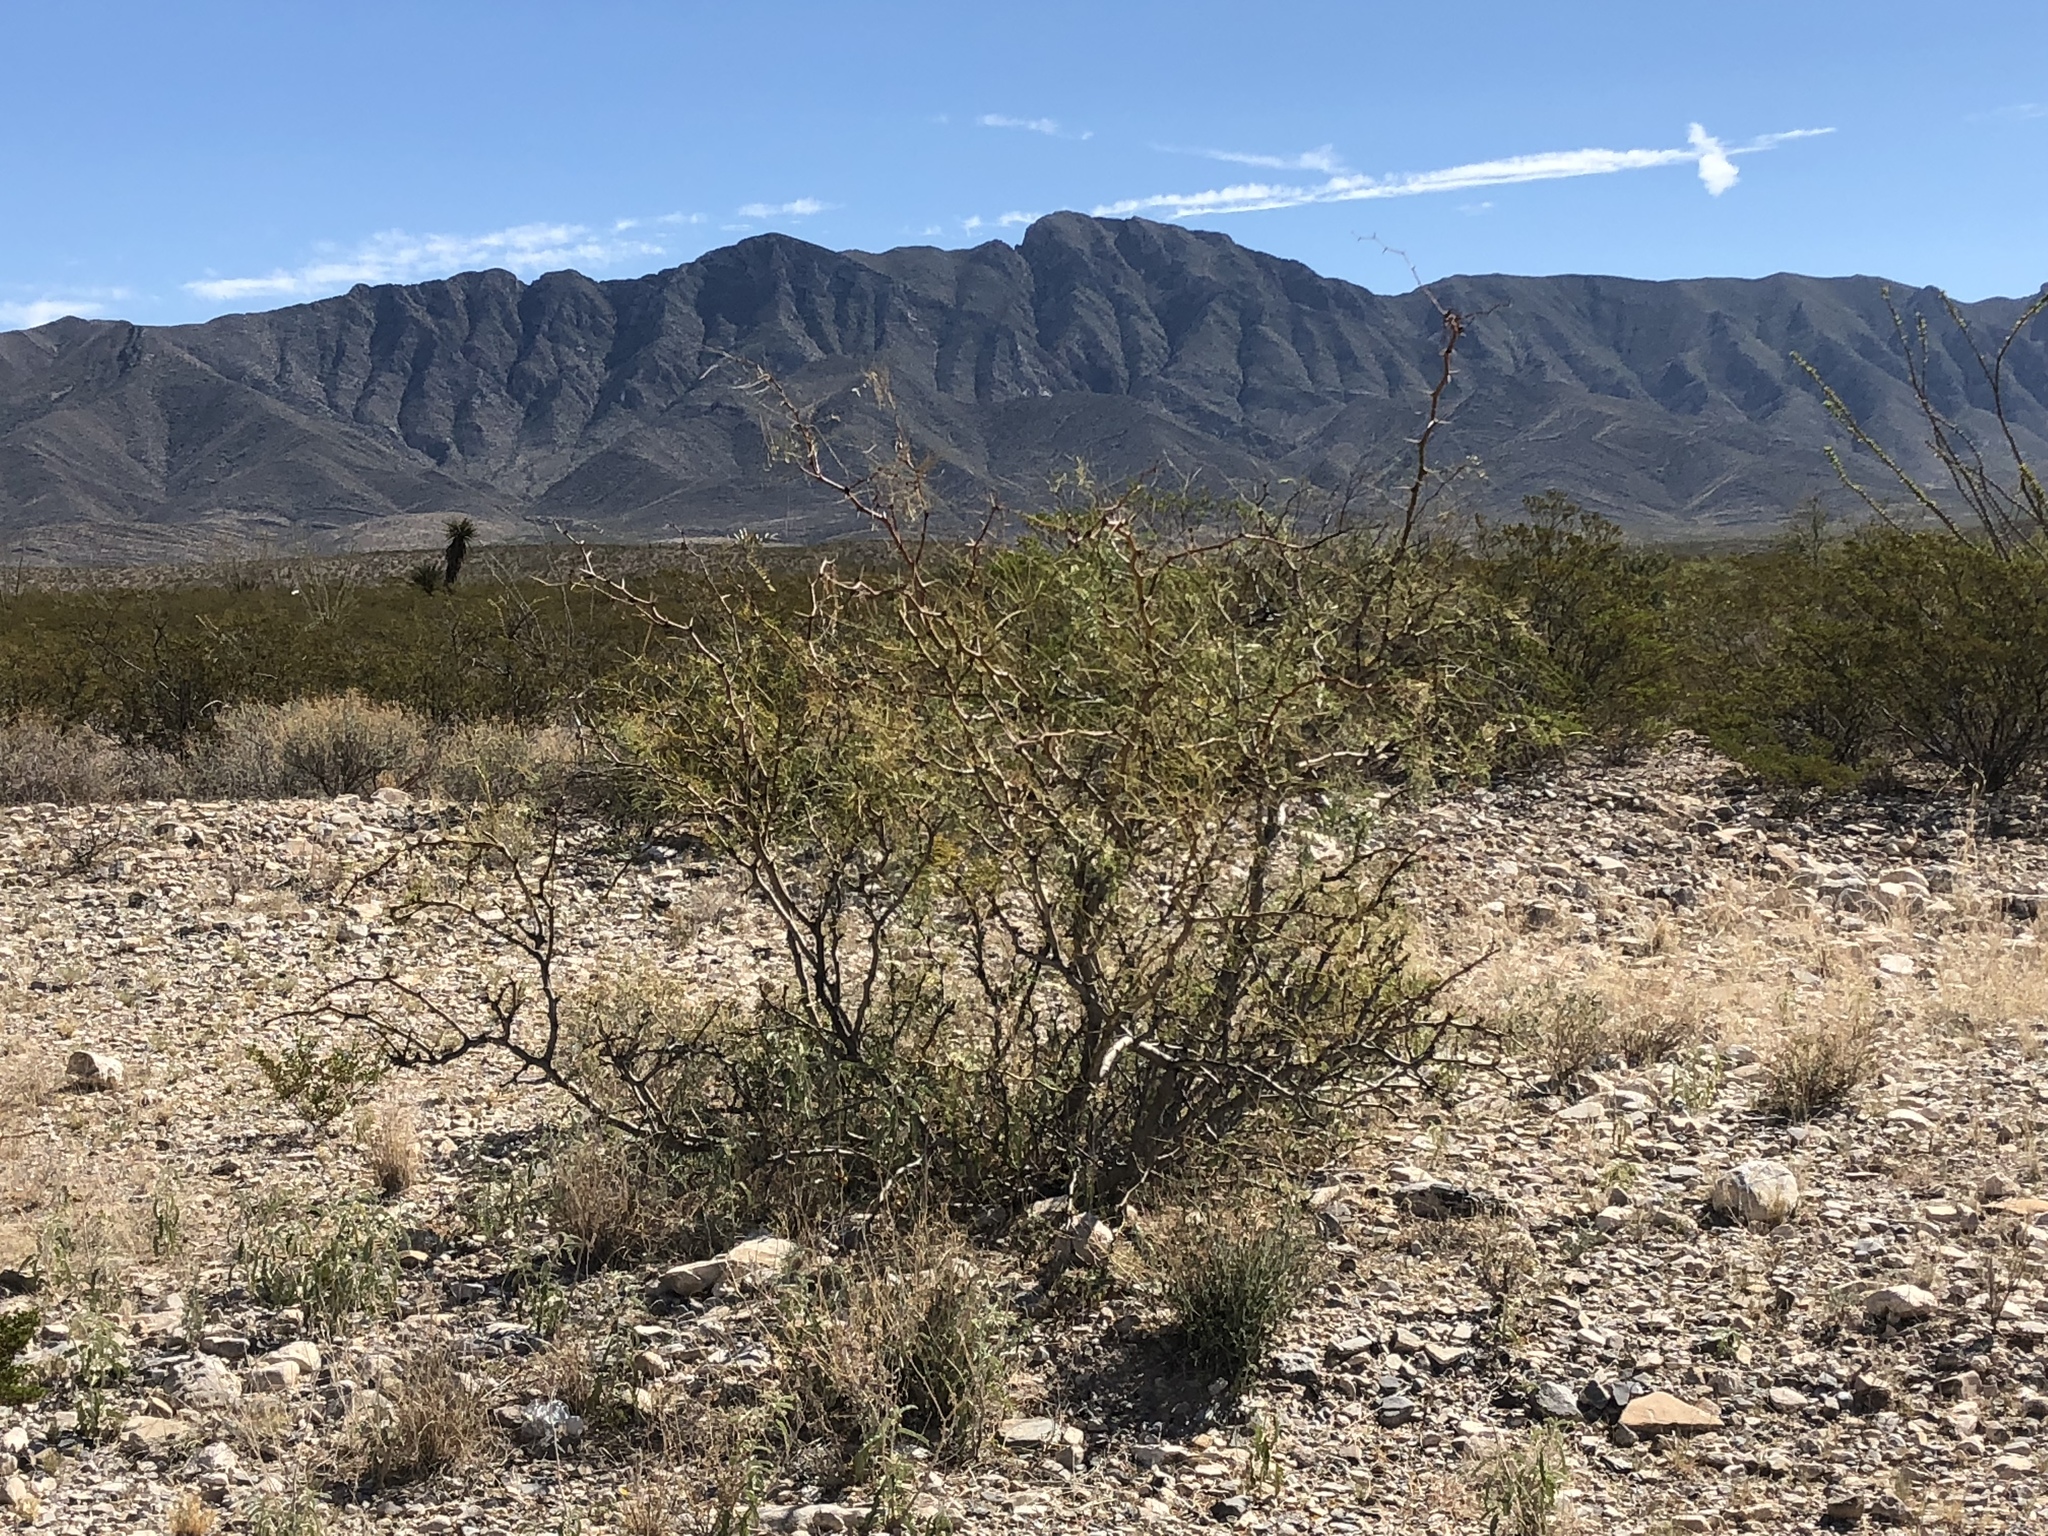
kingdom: Plantae
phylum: Tracheophyta
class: Magnoliopsida
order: Fabales
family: Fabaceae
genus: Prosopis
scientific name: Prosopis glandulosa
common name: Honey mesquite
